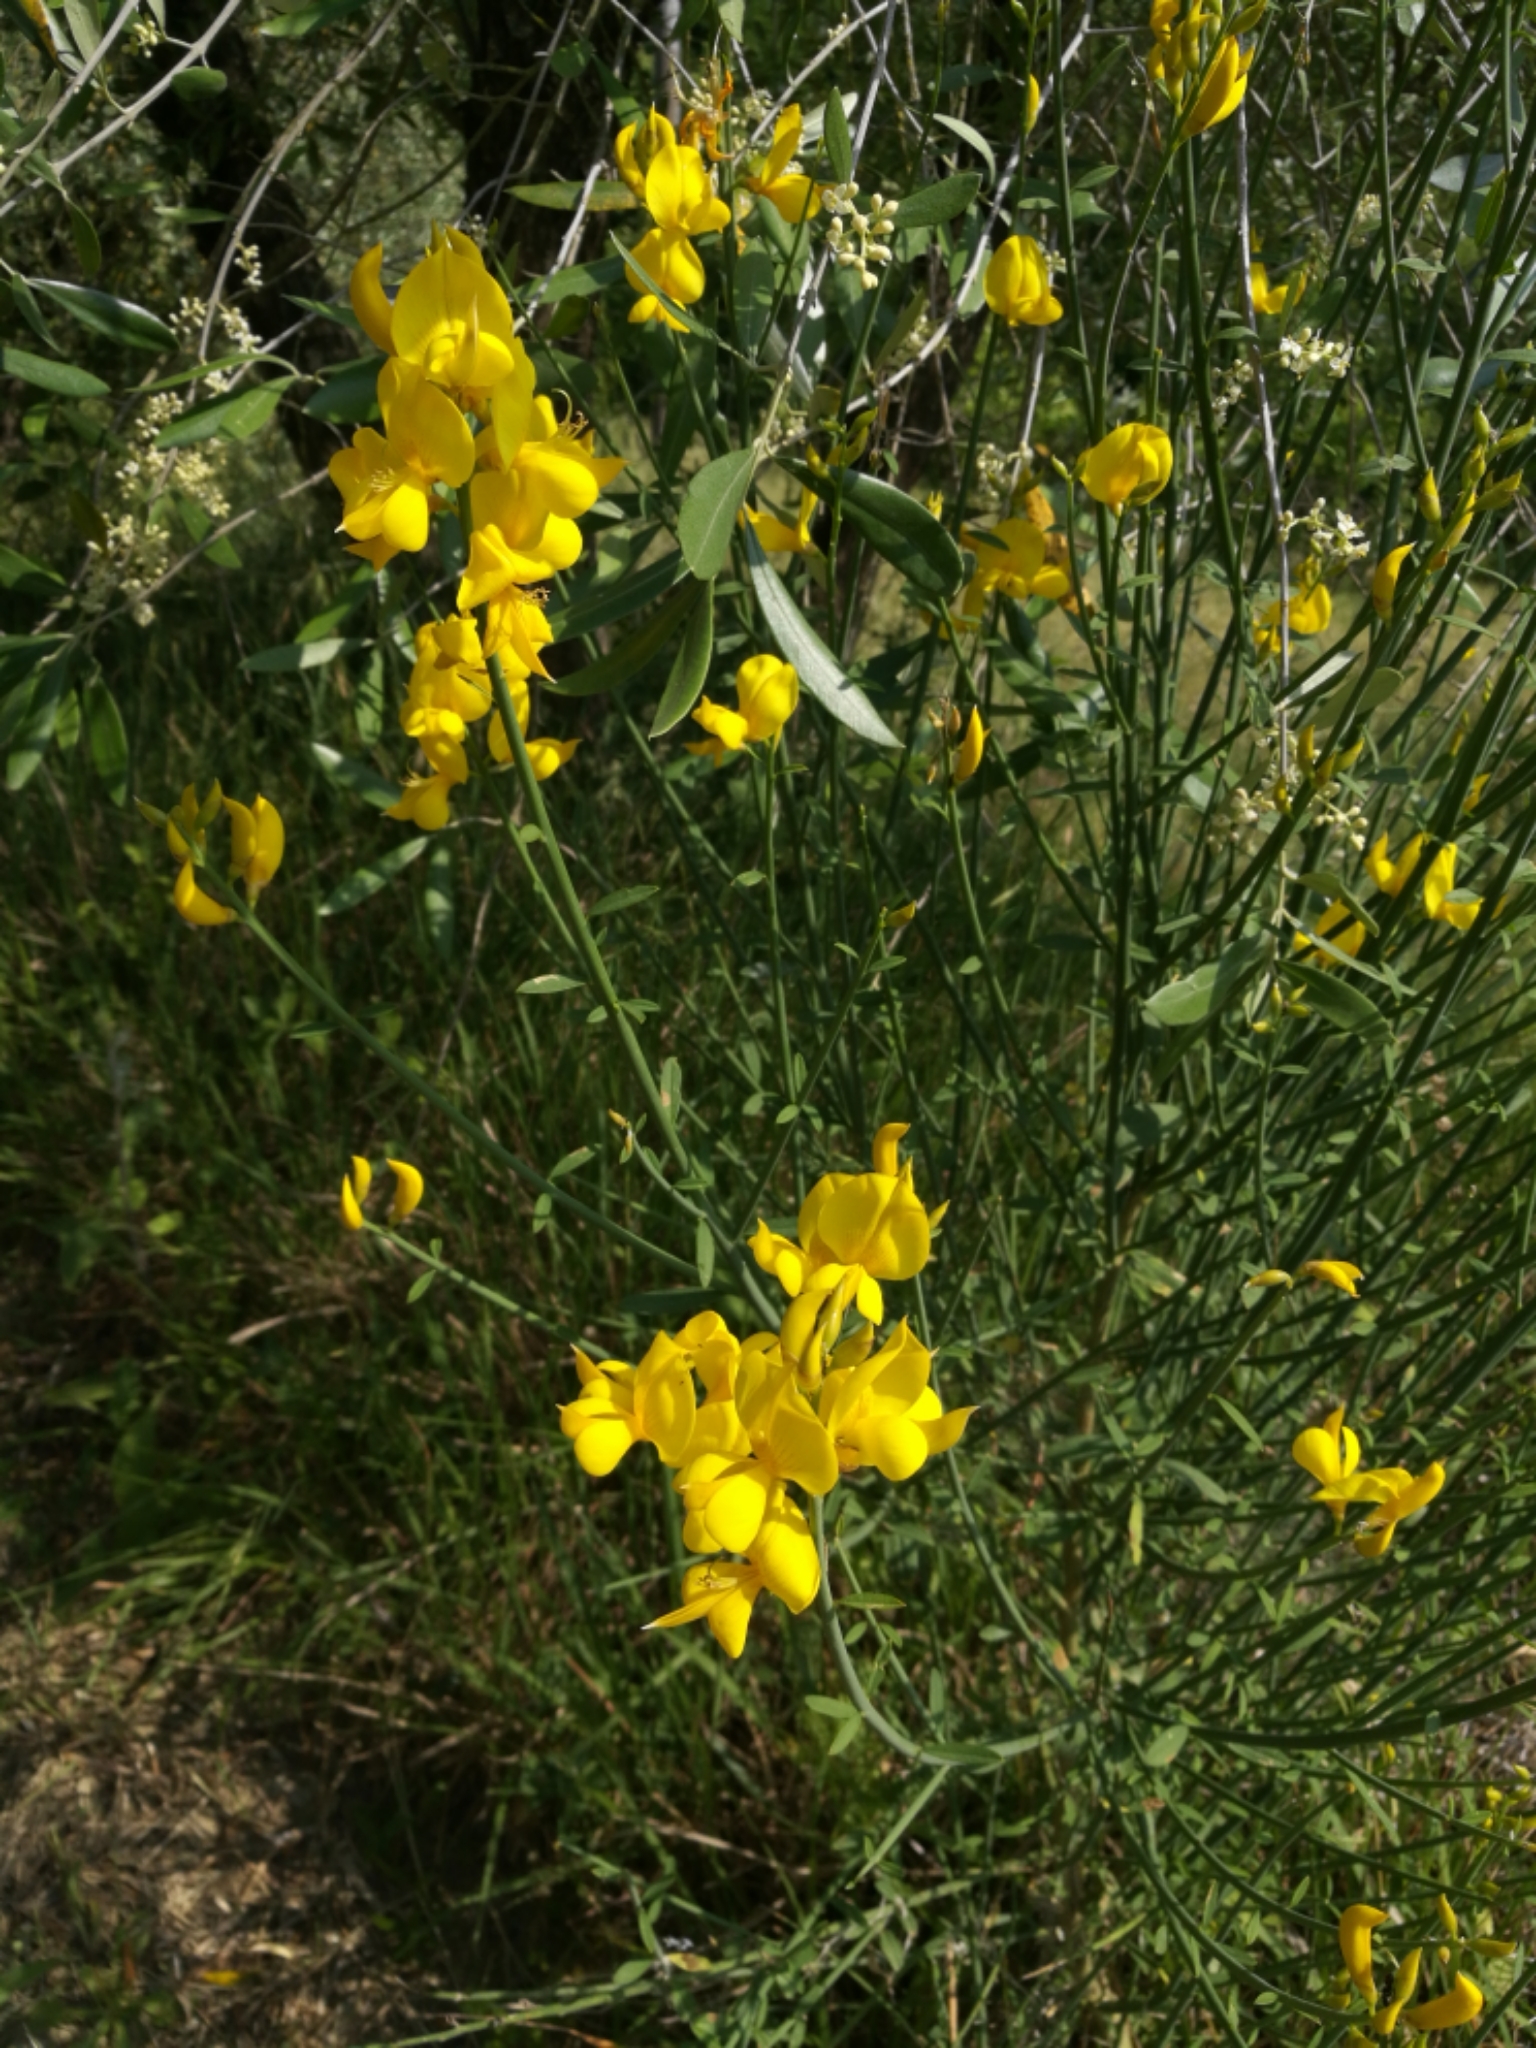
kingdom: Plantae
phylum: Tracheophyta
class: Magnoliopsida
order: Fabales
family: Fabaceae
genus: Spartium
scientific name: Spartium junceum
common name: Spanish broom
